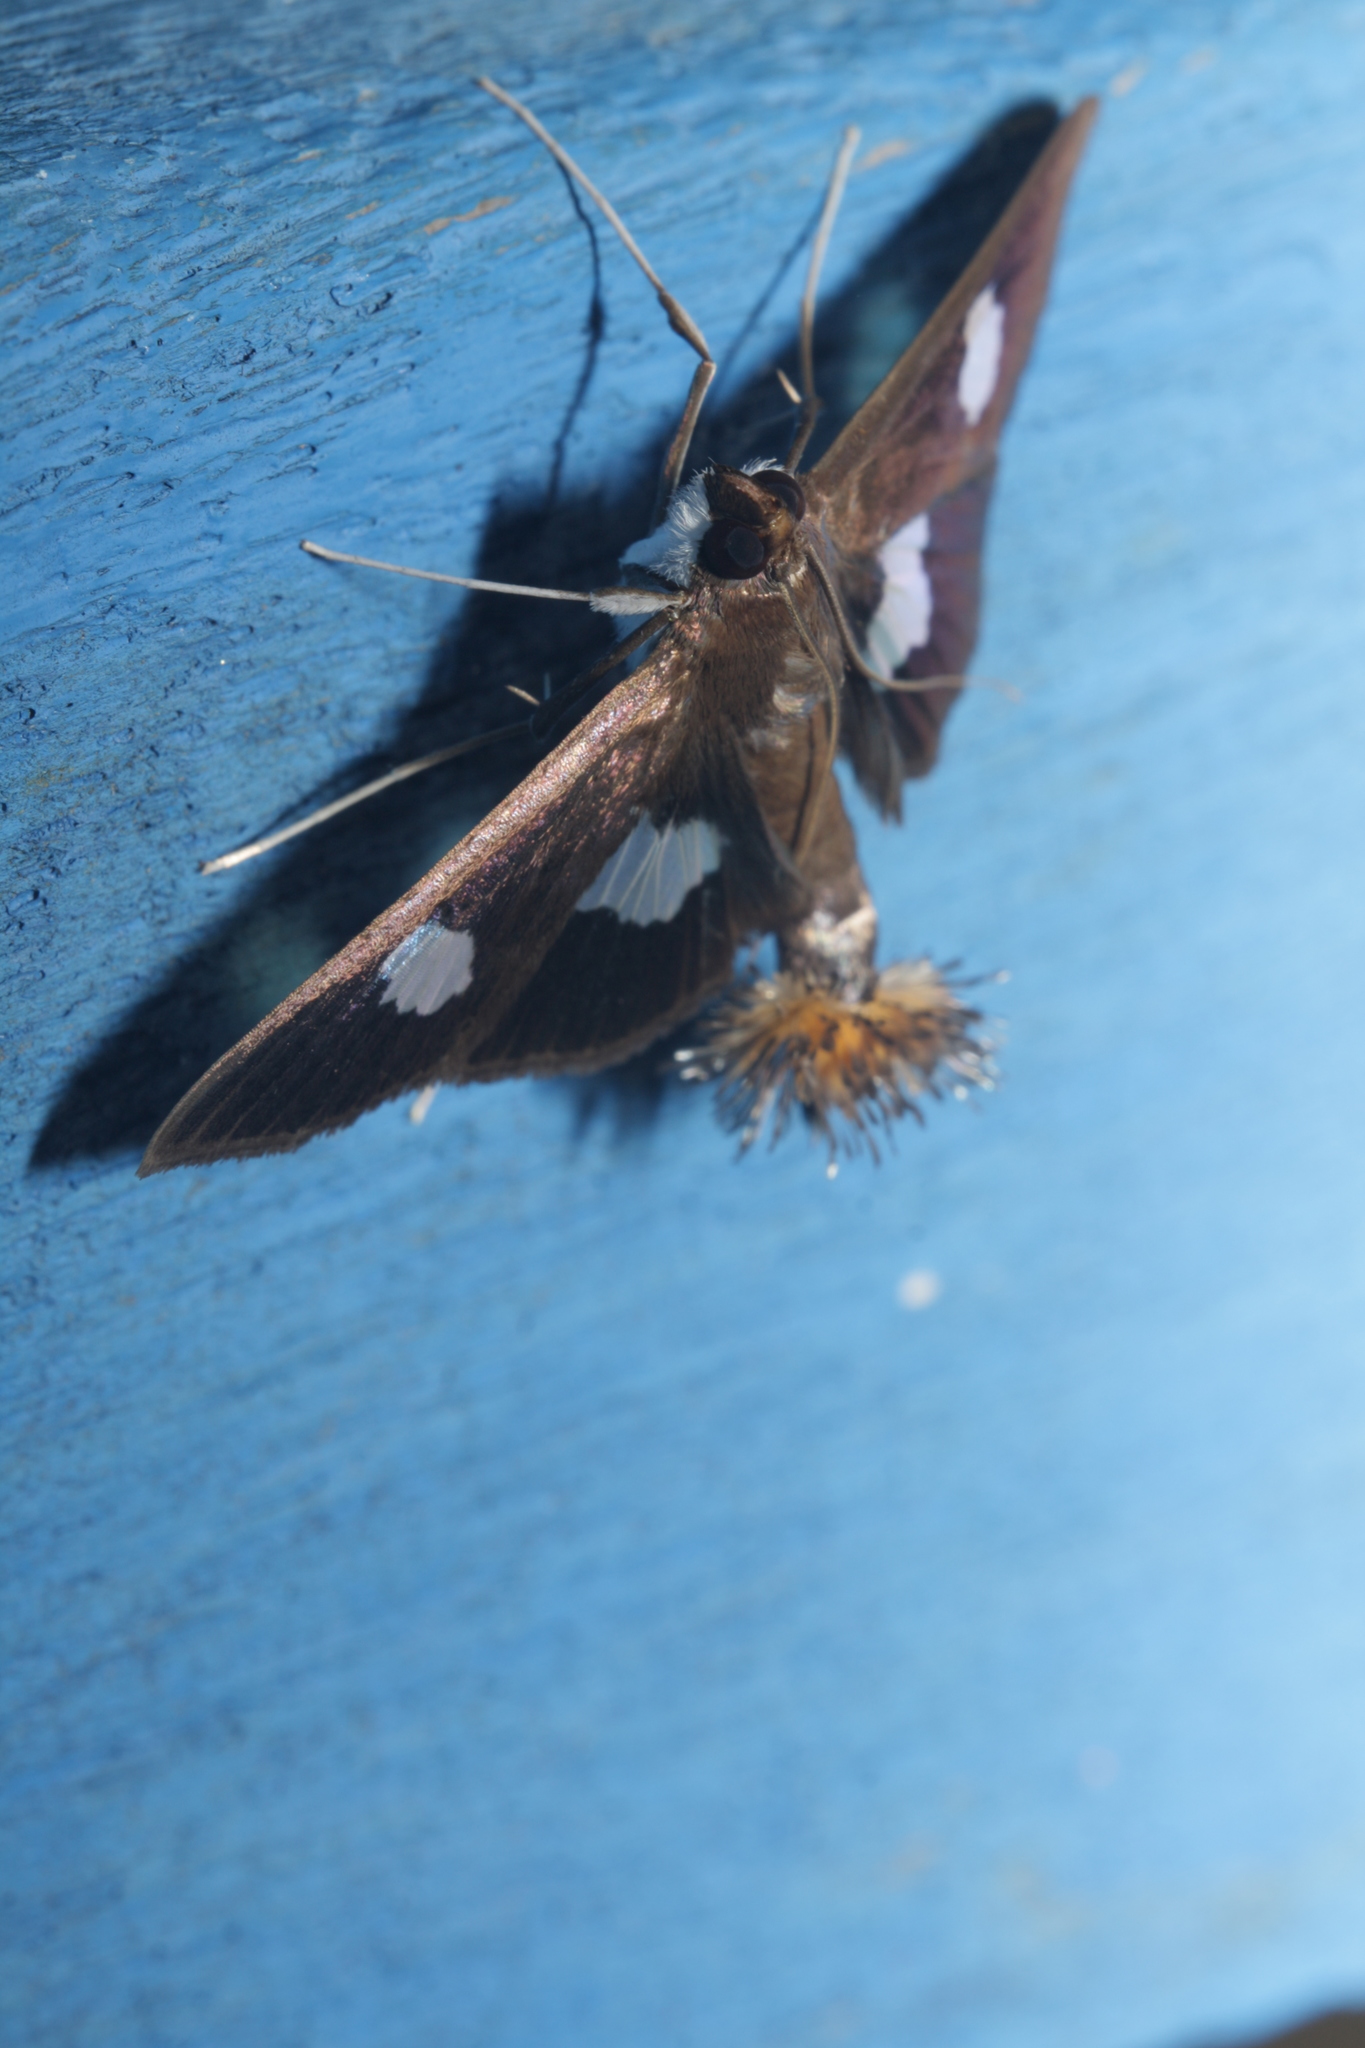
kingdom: Animalia
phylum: Arthropoda
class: Insecta
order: Lepidoptera
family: Crambidae
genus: Diaphania
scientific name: Diaphania exclusalis
